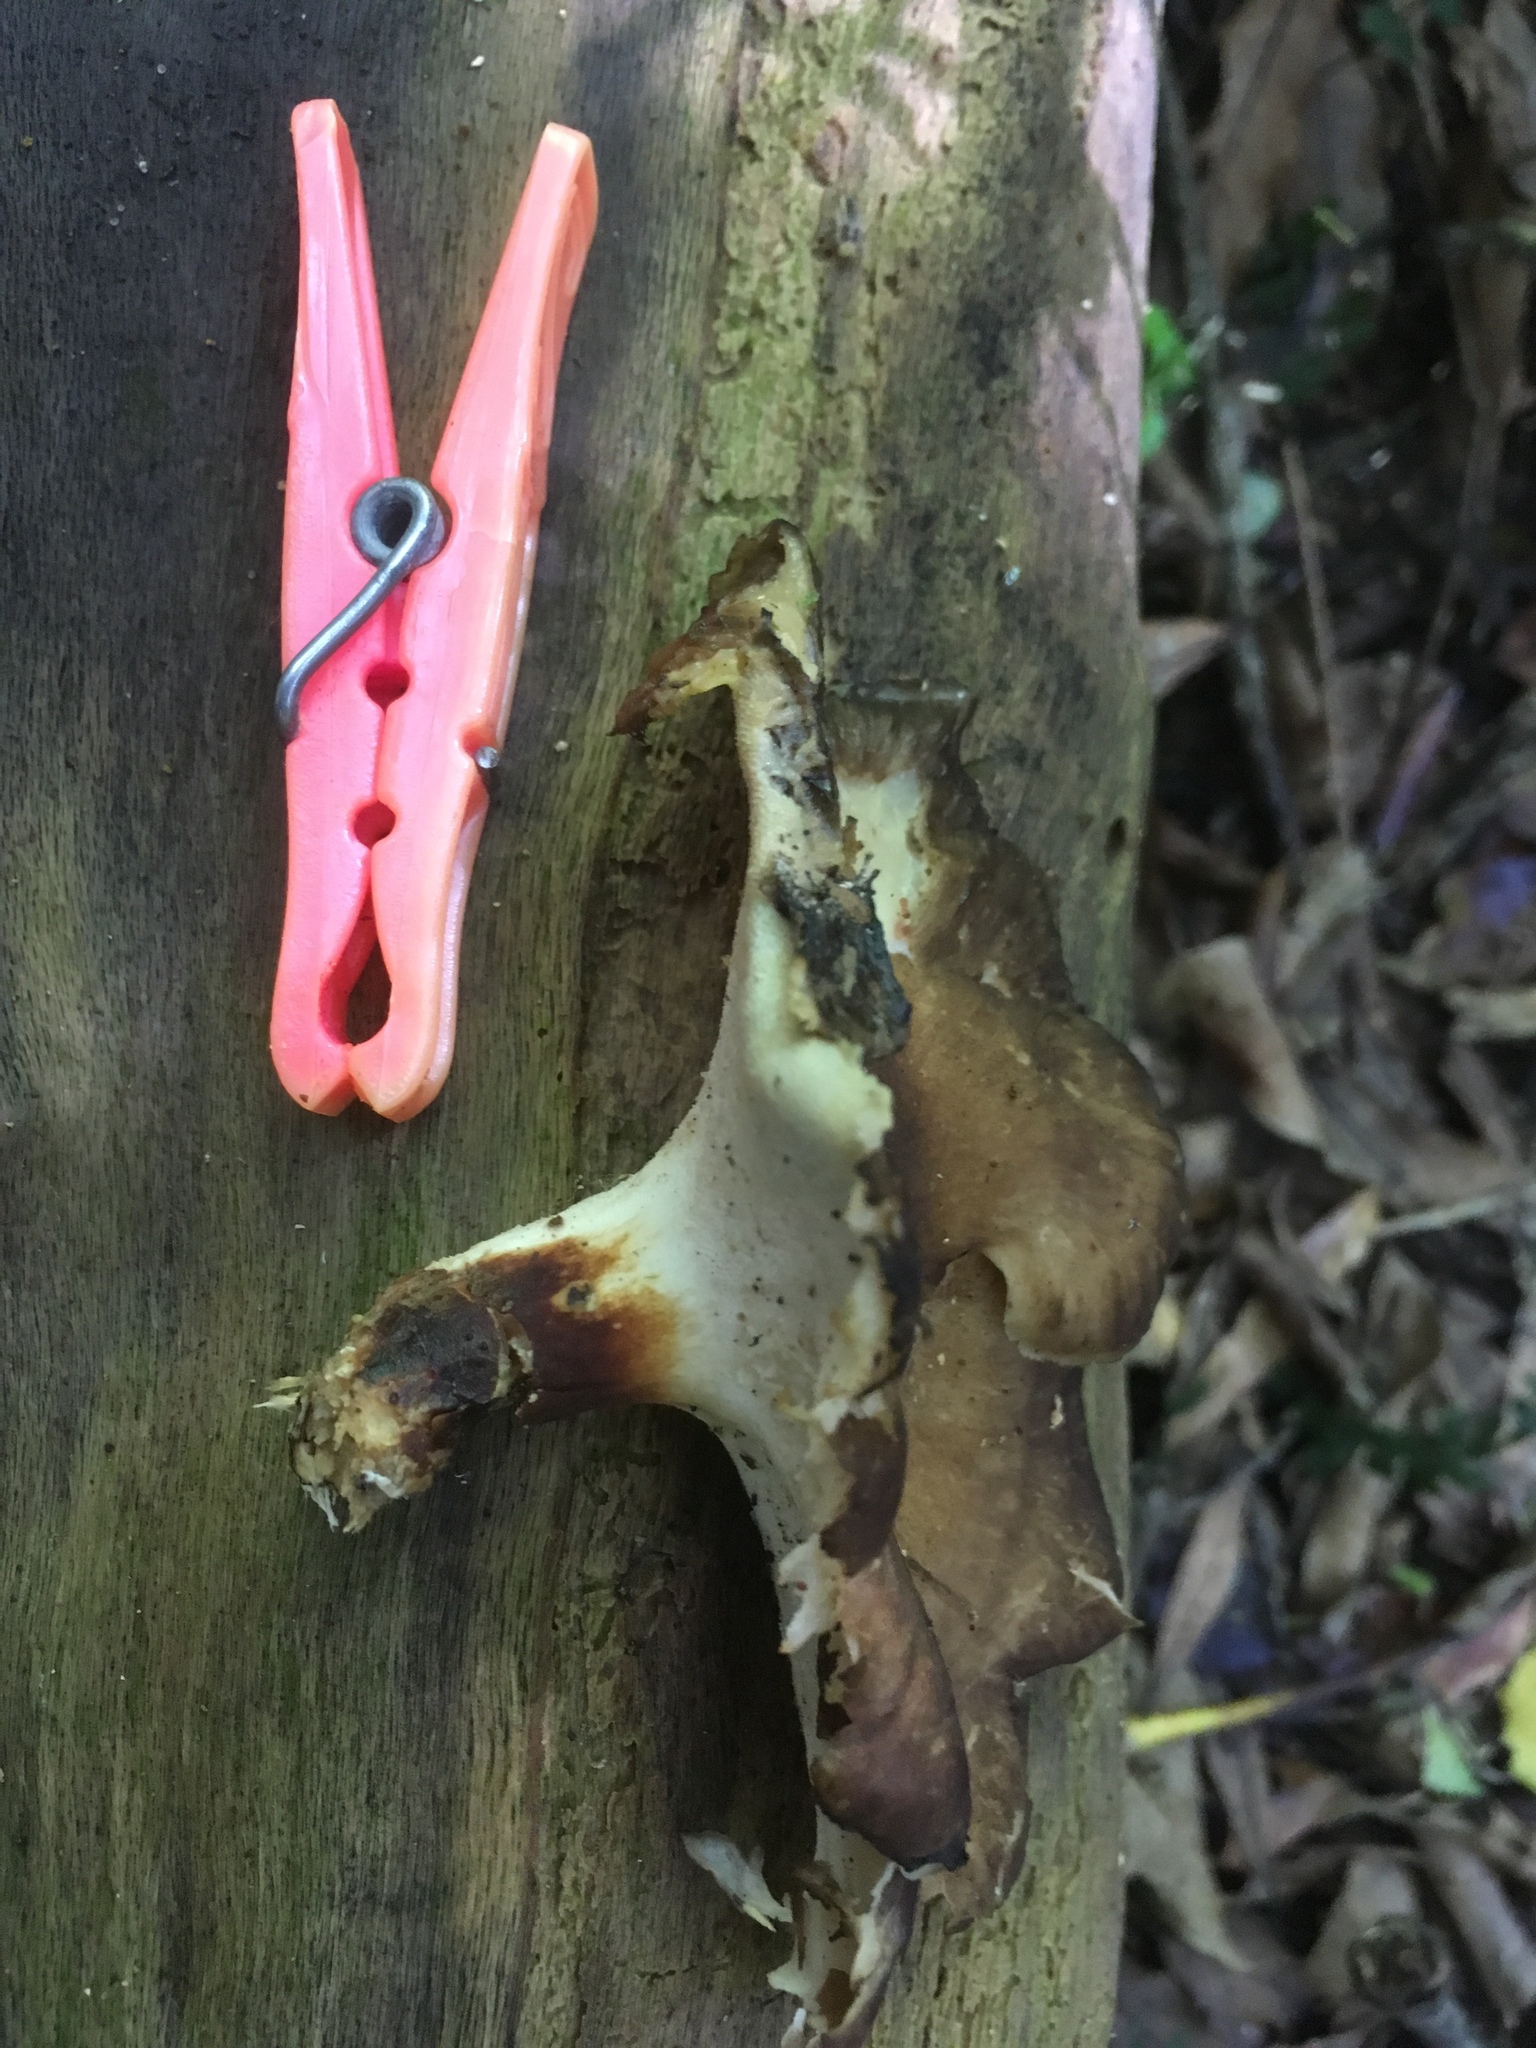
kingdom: Fungi
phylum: Basidiomycota
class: Agaricomycetes
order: Polyporales
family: Polyporaceae
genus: Picipes
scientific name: Picipes melanopus
